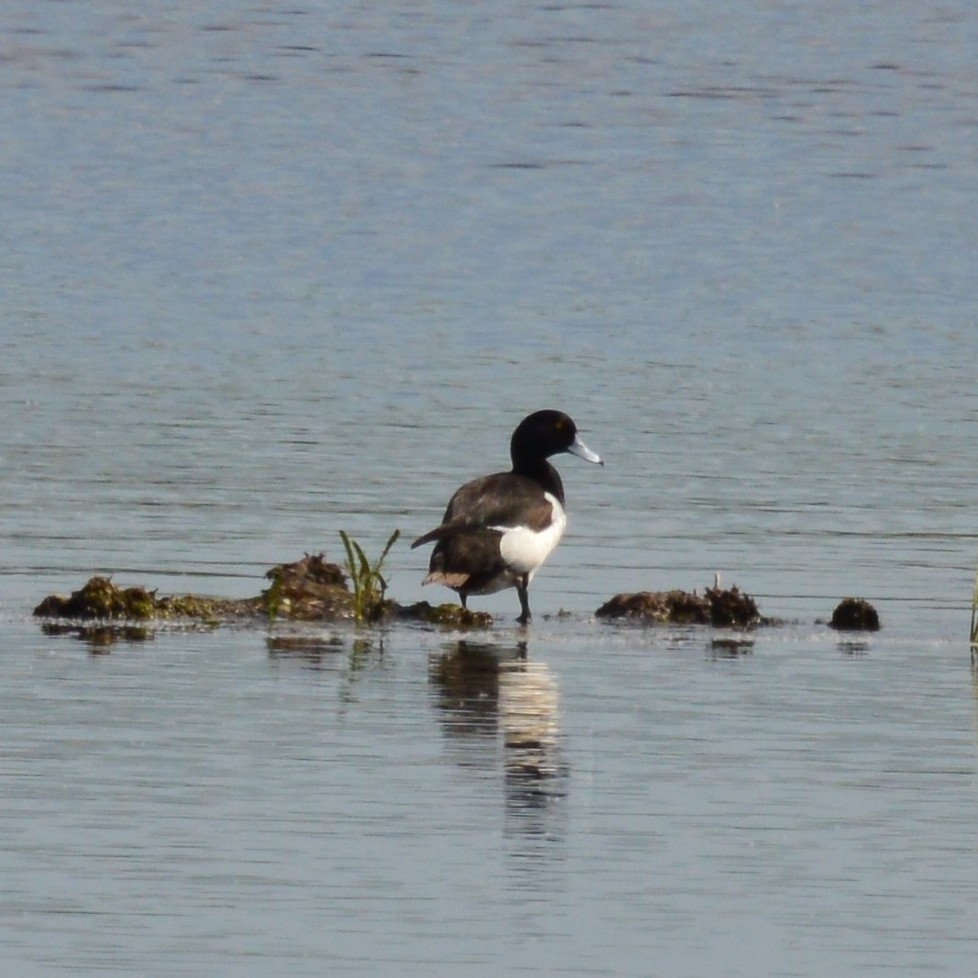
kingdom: Animalia
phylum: Chordata
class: Aves
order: Anseriformes
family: Anatidae
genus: Aythya
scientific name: Aythya fuligula
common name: Tufted duck
